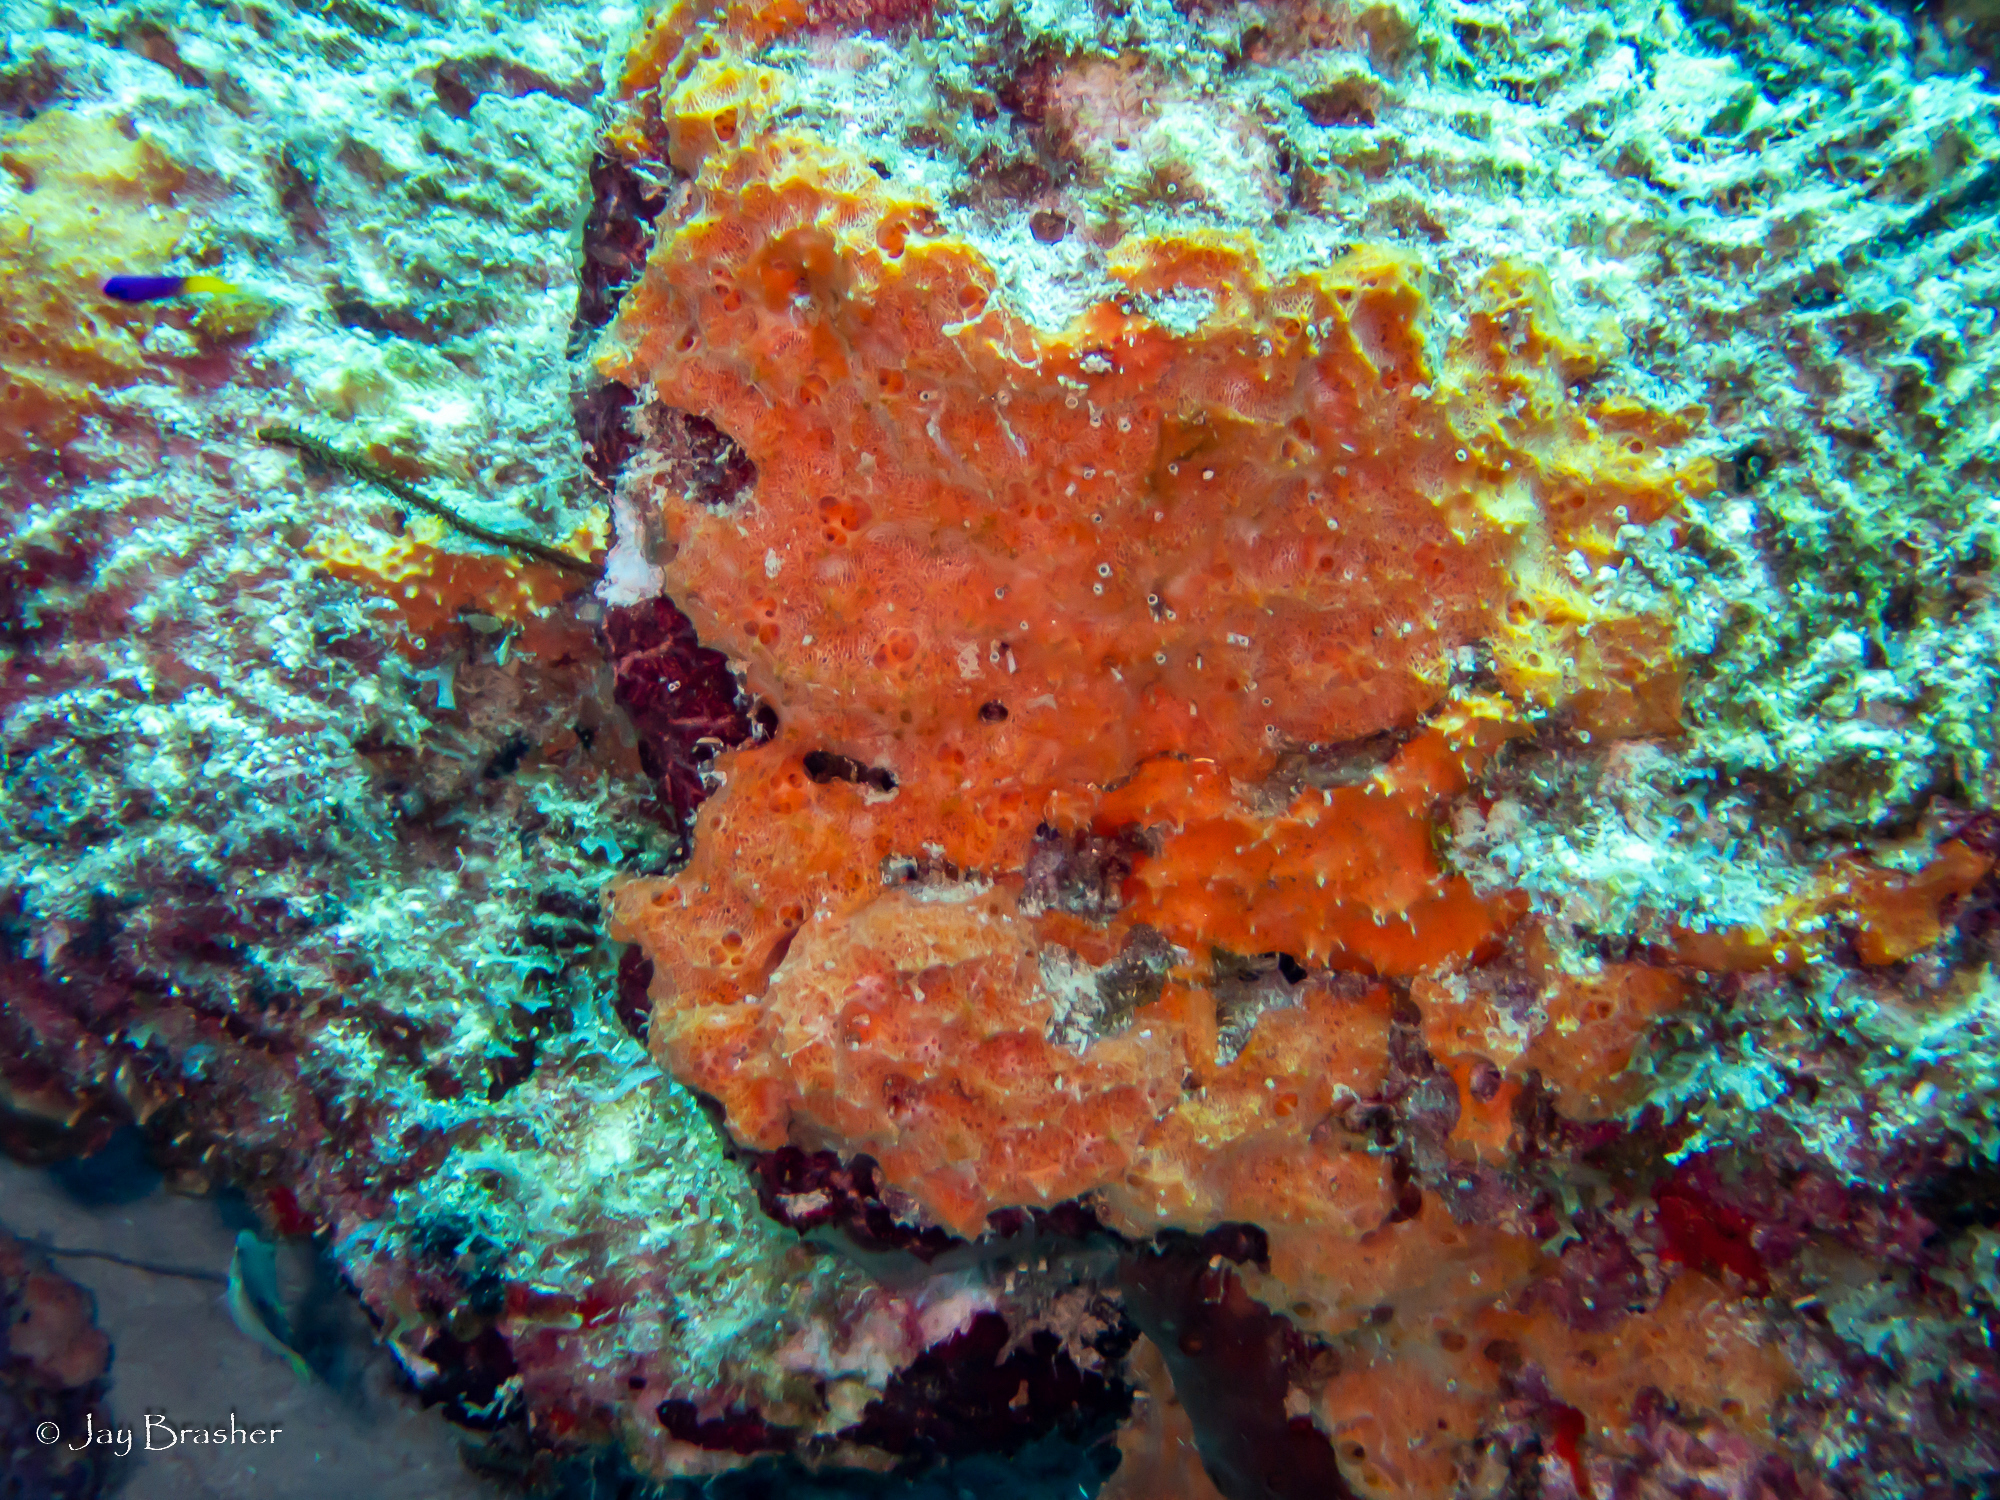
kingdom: Animalia
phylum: Chordata
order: Tetraodontiformes
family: Tetraodontidae
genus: Canthigaster
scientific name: Canthigaster rostrata
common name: Caribbean sharpnose-puffer
